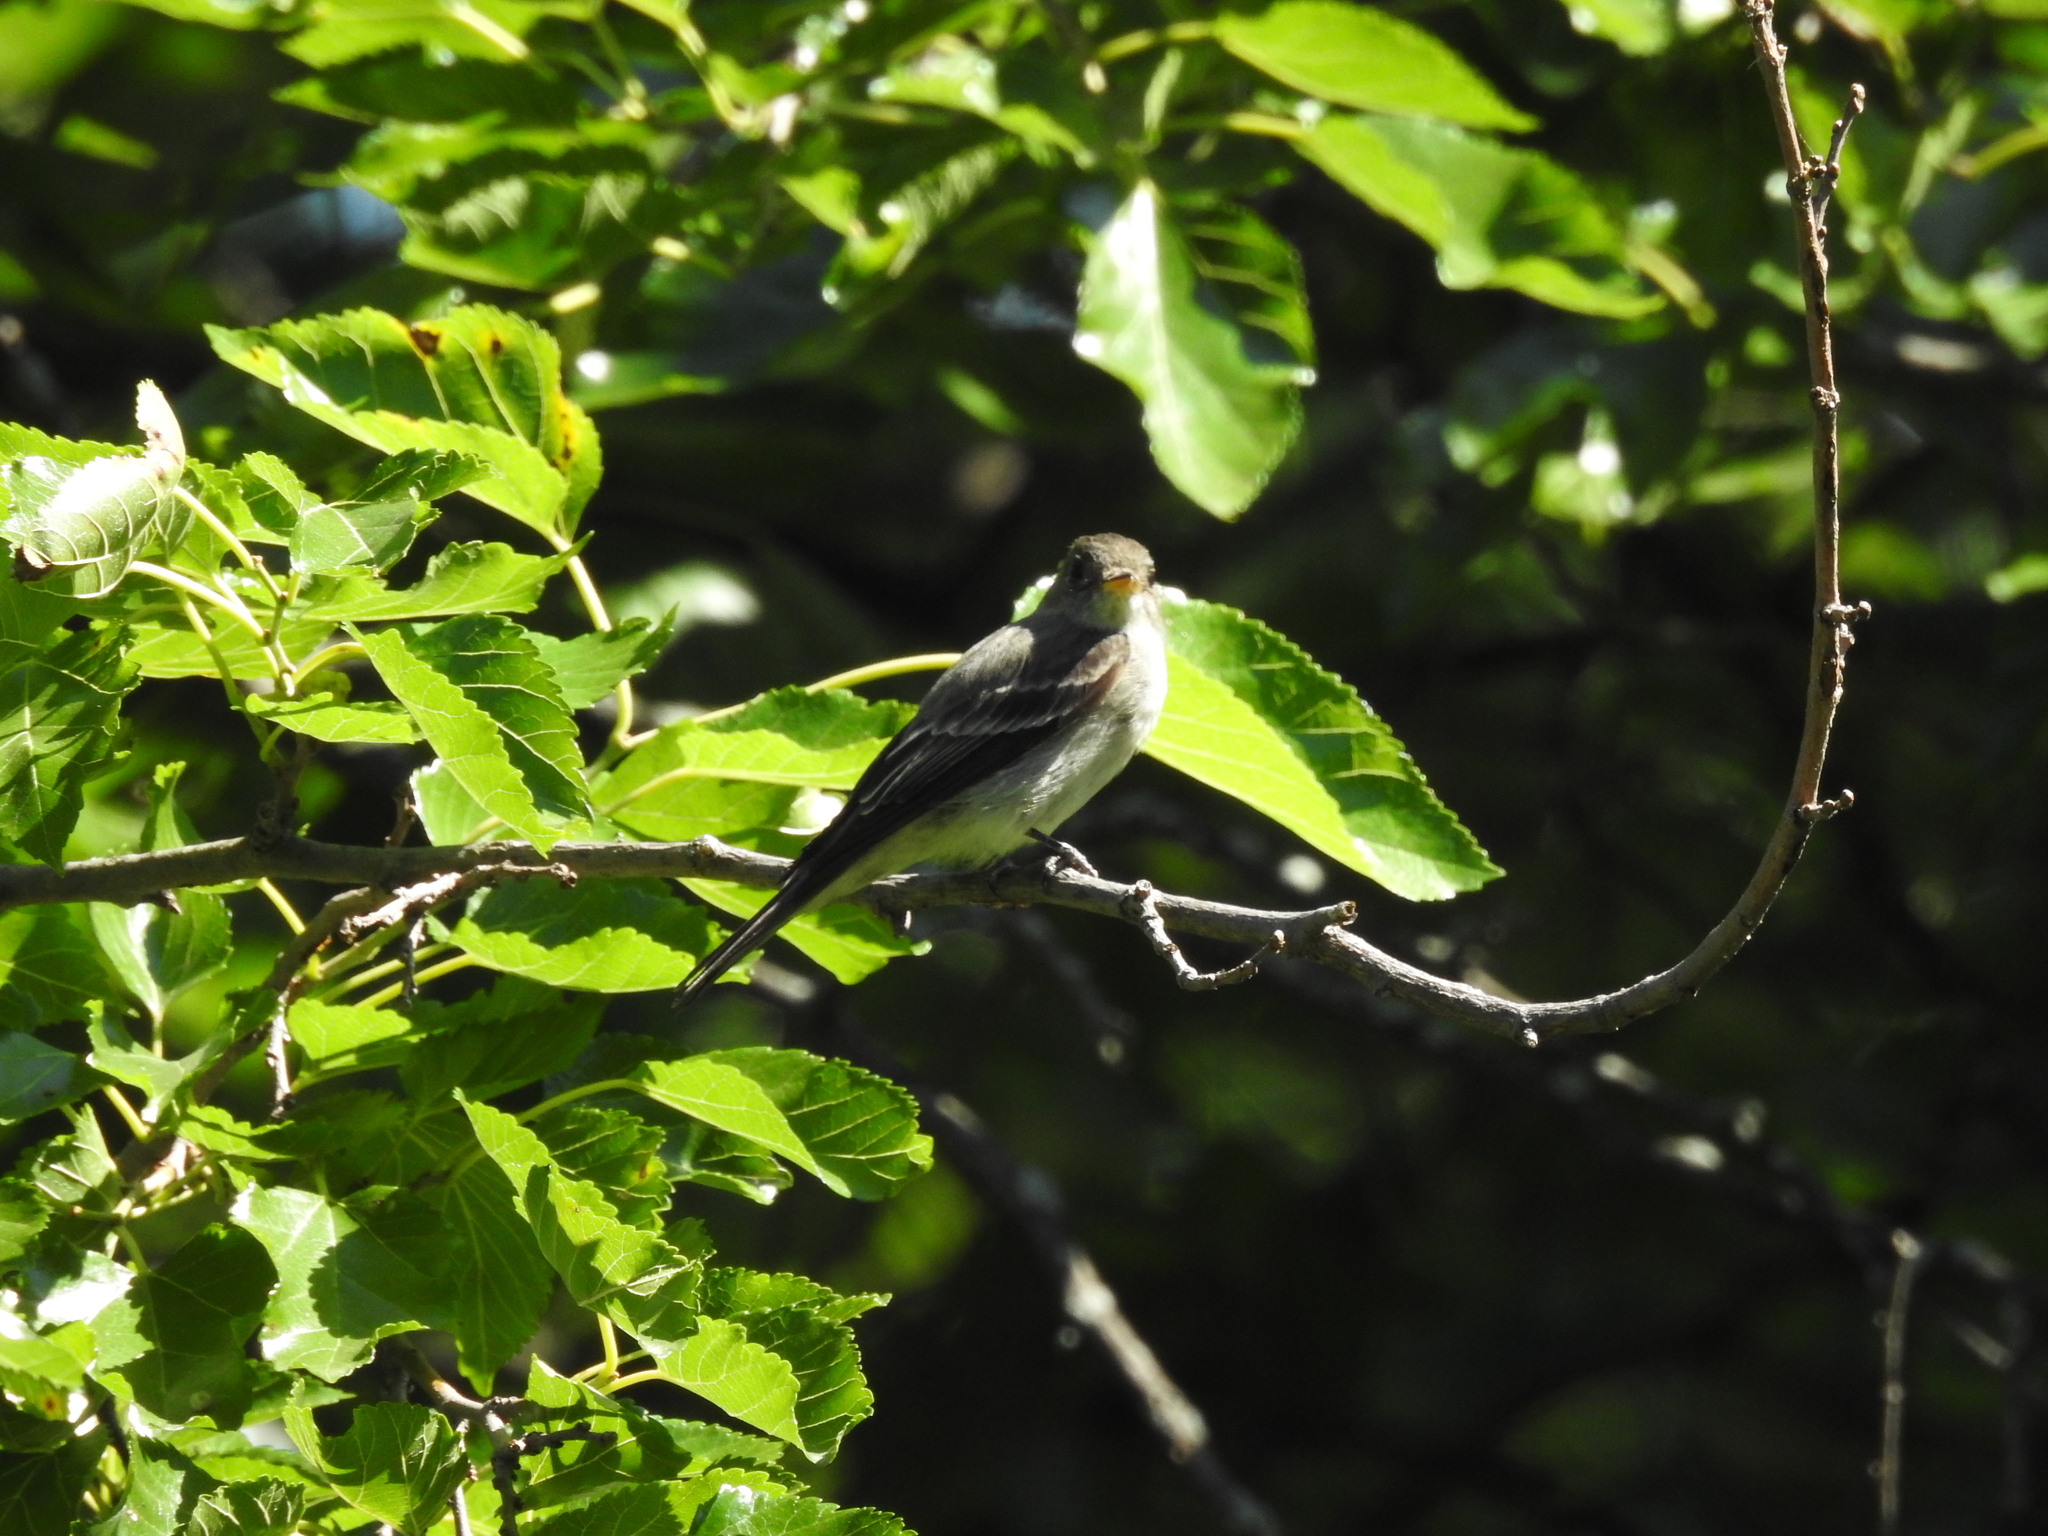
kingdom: Animalia
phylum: Chordata
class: Aves
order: Passeriformes
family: Tyrannidae
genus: Contopus
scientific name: Contopus virens
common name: Eastern wood-pewee
